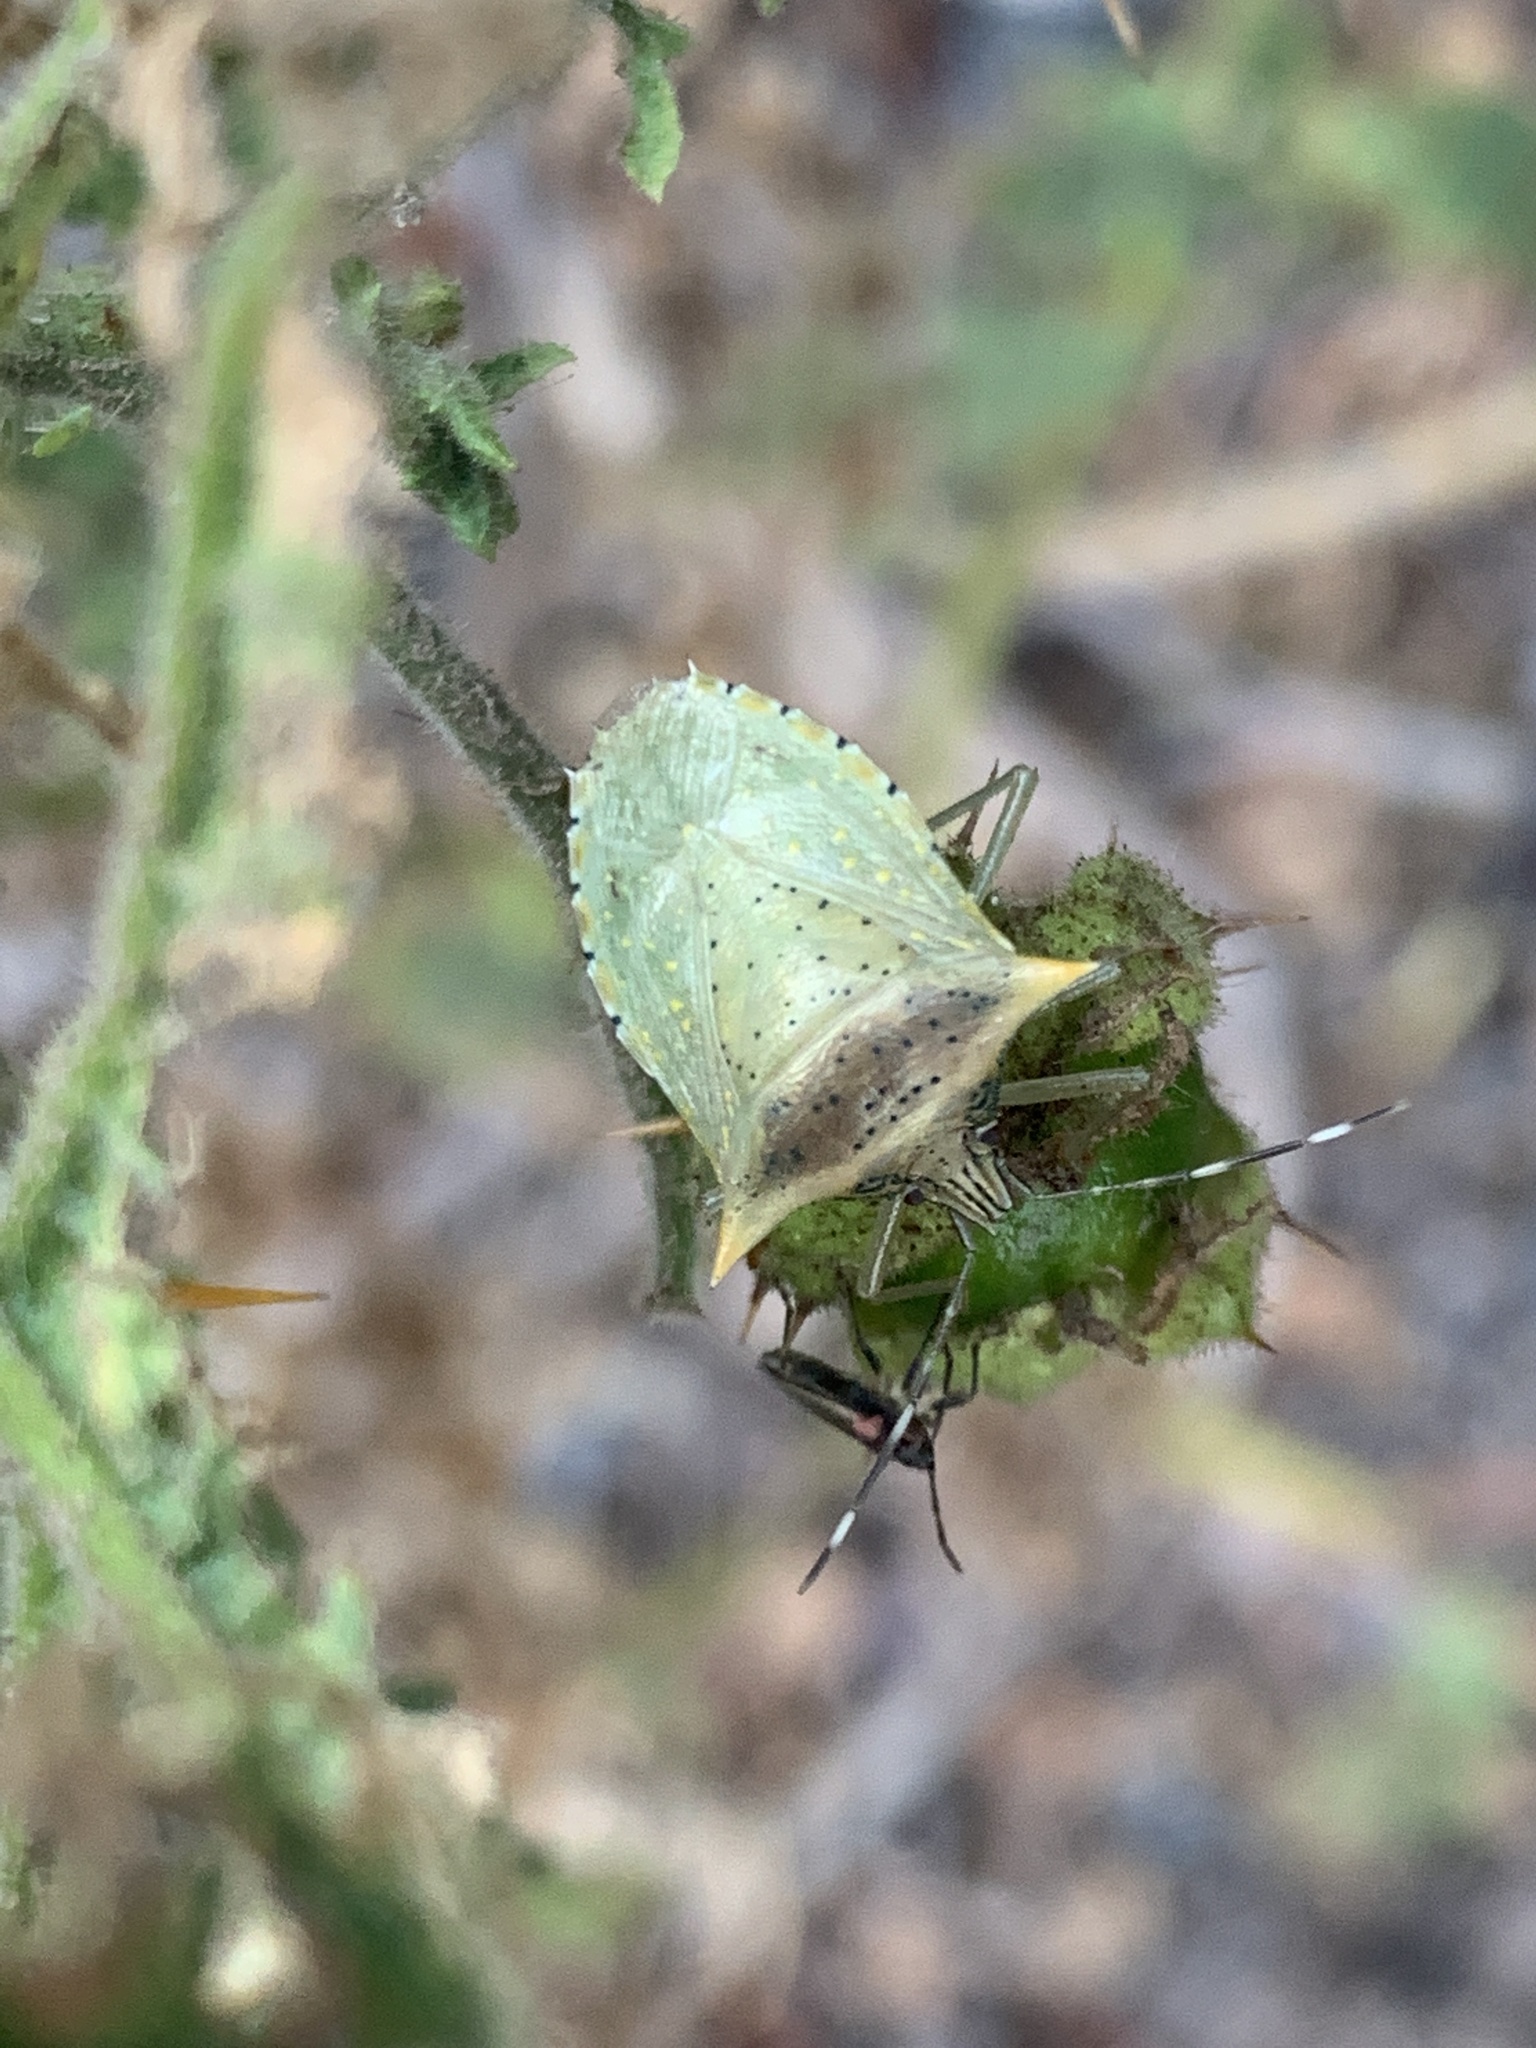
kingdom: Animalia
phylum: Arthropoda
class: Insecta
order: Hemiptera
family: Pentatomidae
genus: Arvelius
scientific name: Arvelius albopunctatus
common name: Tomato stink bug
